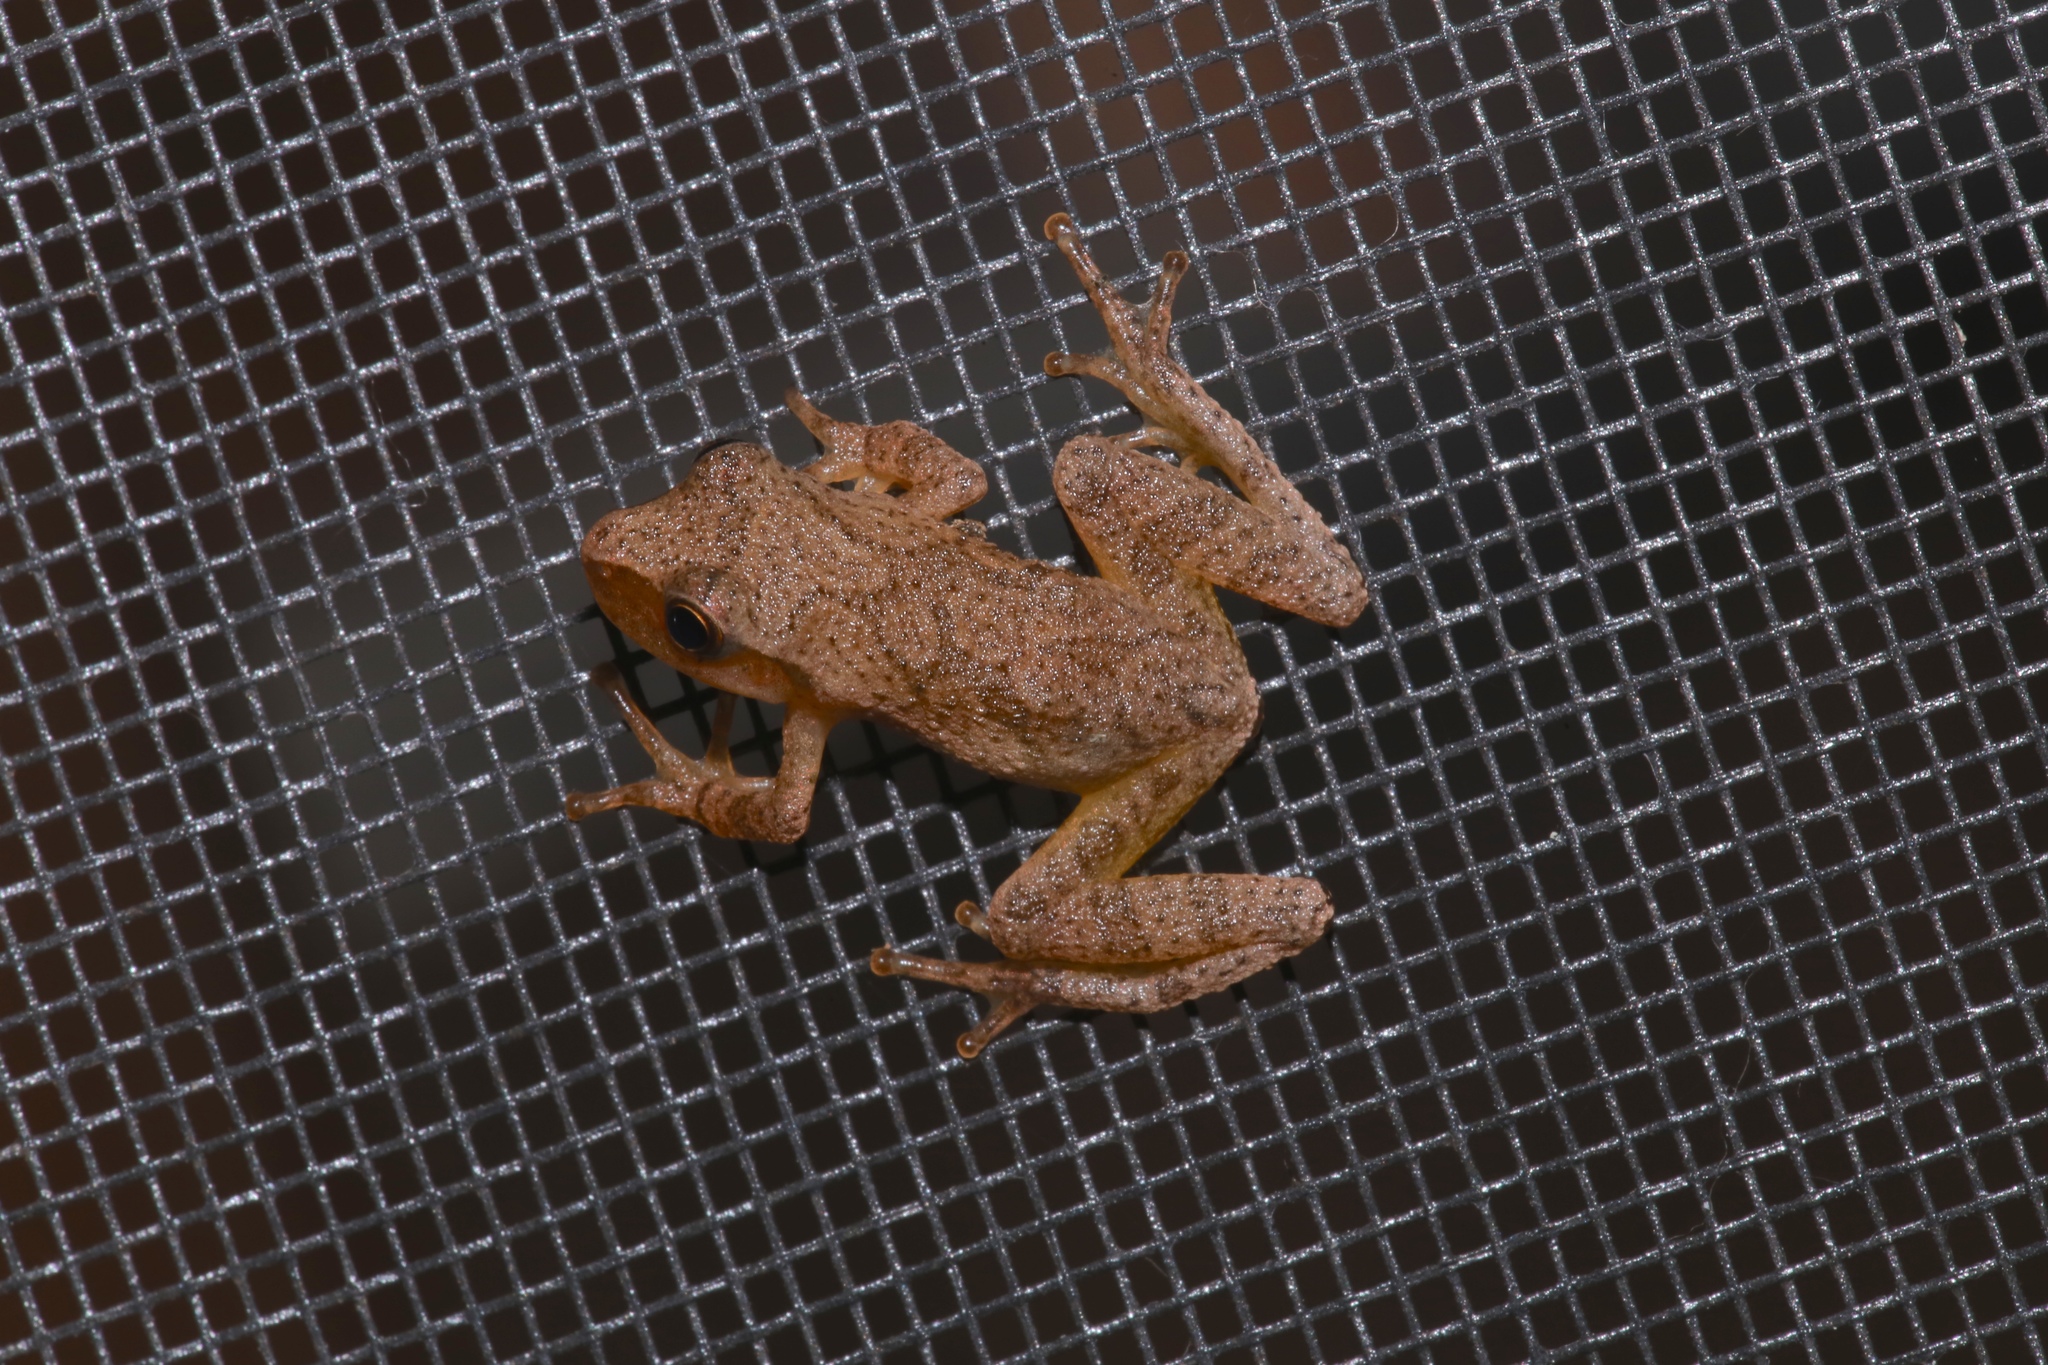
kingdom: Animalia
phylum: Chordata
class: Amphibia
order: Anura
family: Hylidae
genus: Pseudacris
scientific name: Pseudacris crucifer
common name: Spring peeper
